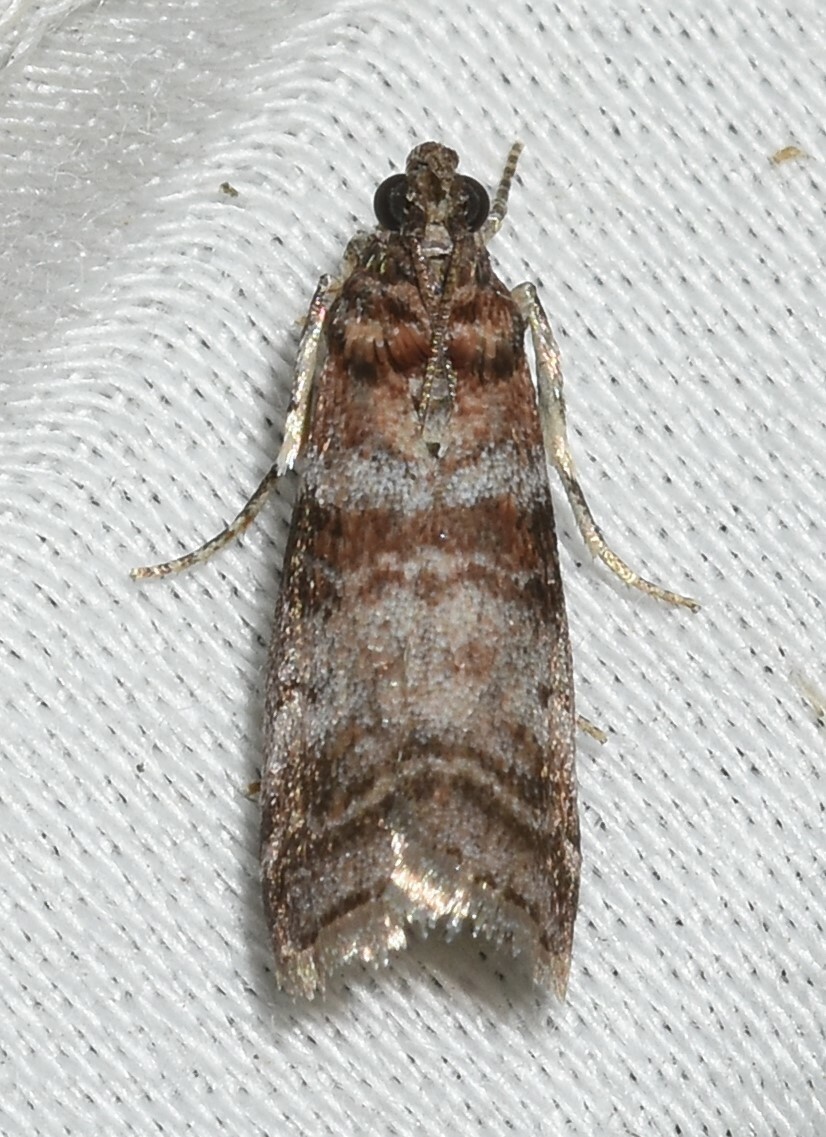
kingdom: Animalia
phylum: Arthropoda
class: Insecta
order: Lepidoptera
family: Pyralidae
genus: Sciota
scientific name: Sciota uvinella
